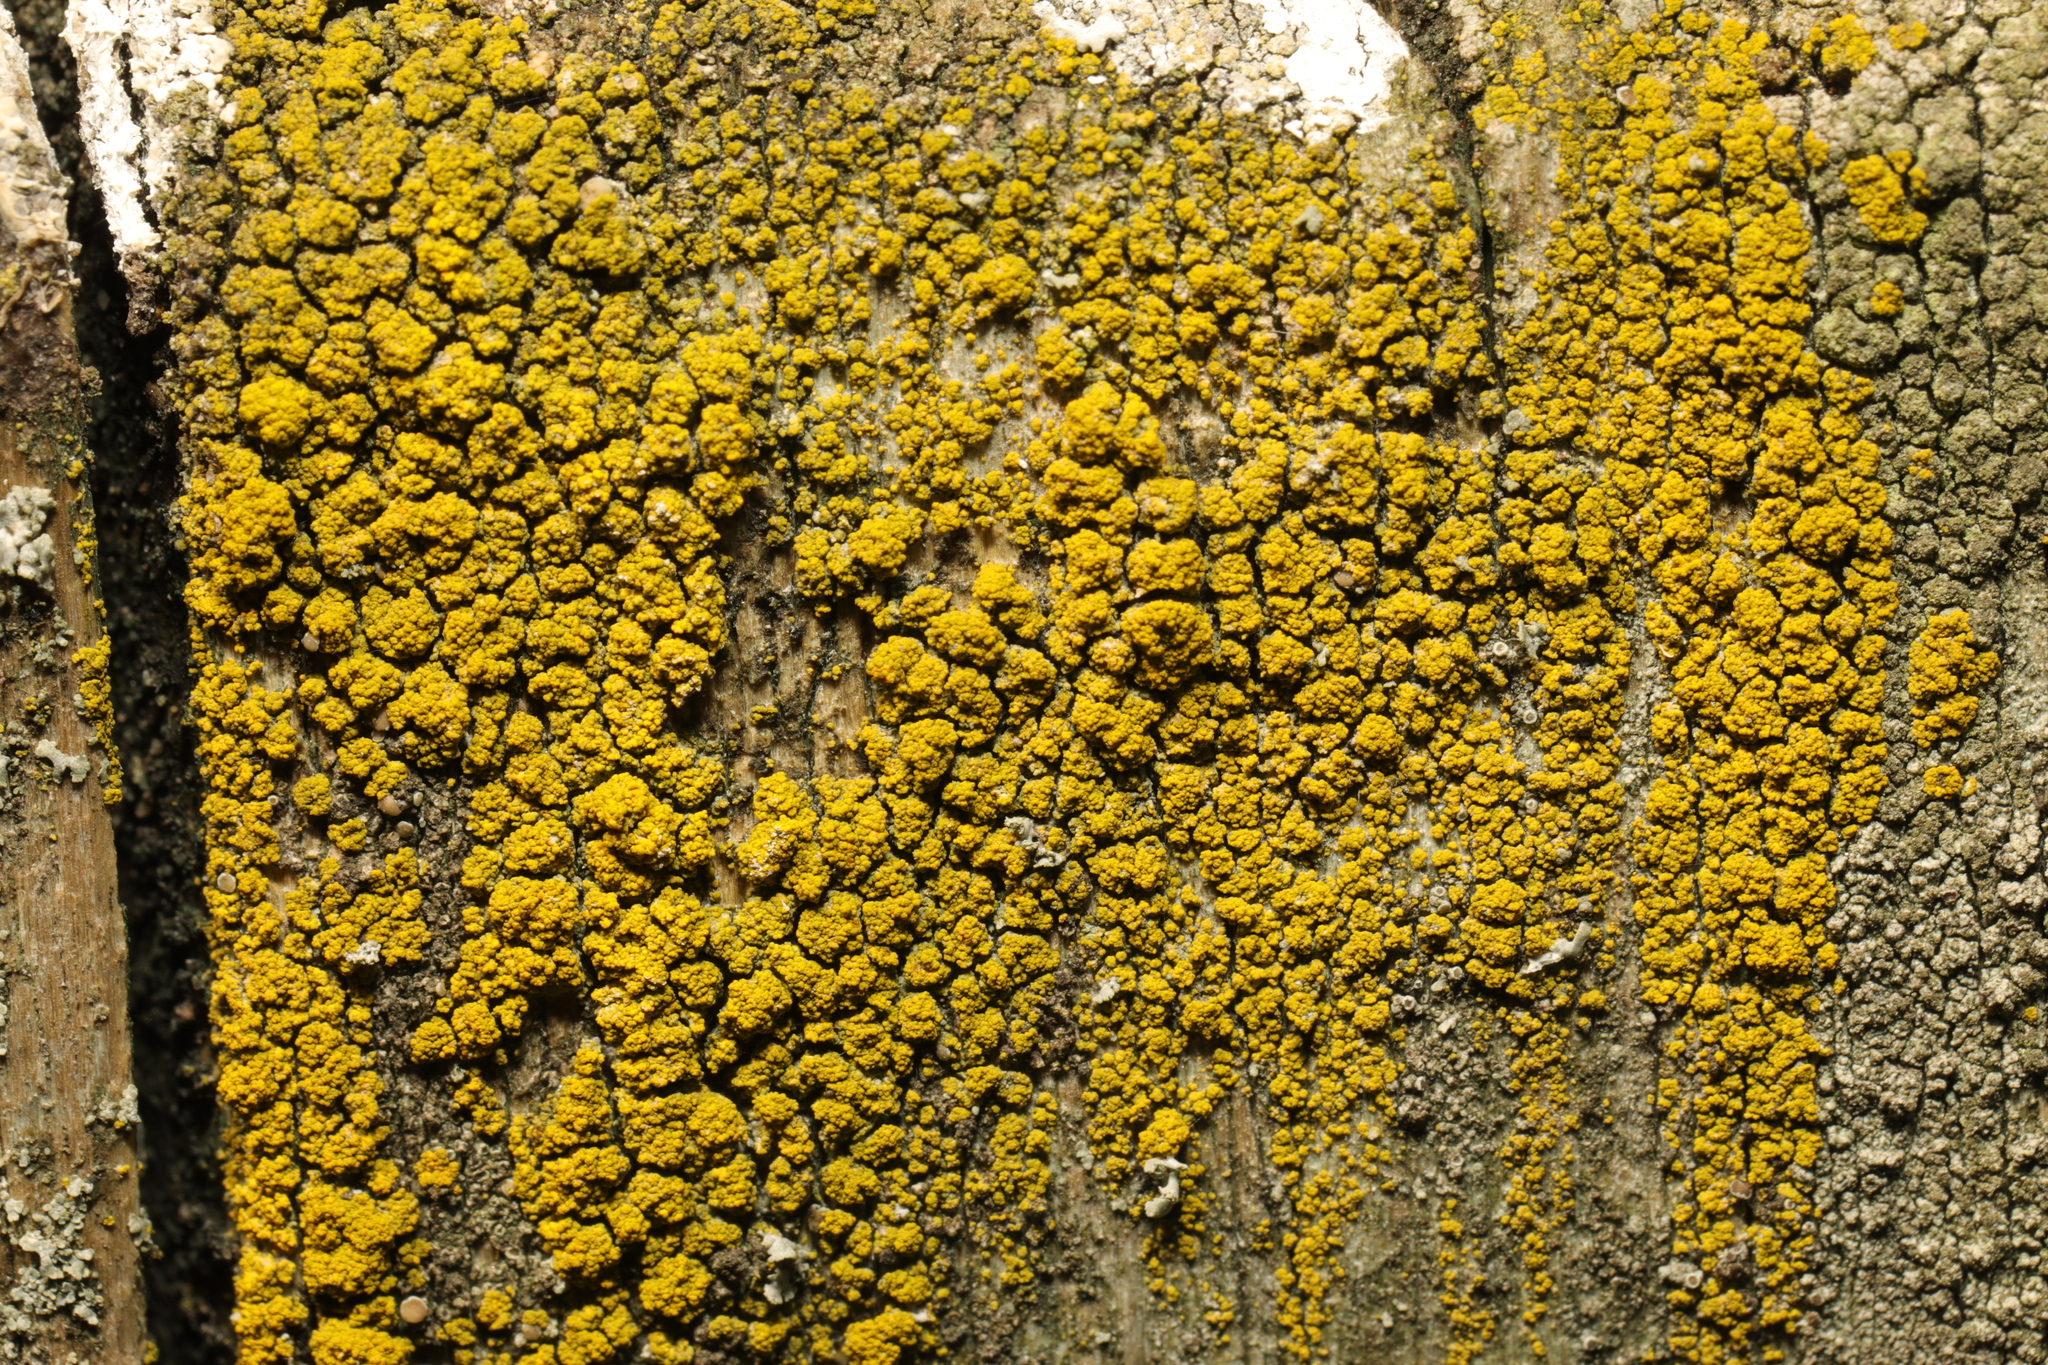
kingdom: Fungi
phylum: Ascomycota
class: Candelariomycetes
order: Candelariales
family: Candelariaceae
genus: Candelariella
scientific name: Candelariella vitellina
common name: Common goldspeck
